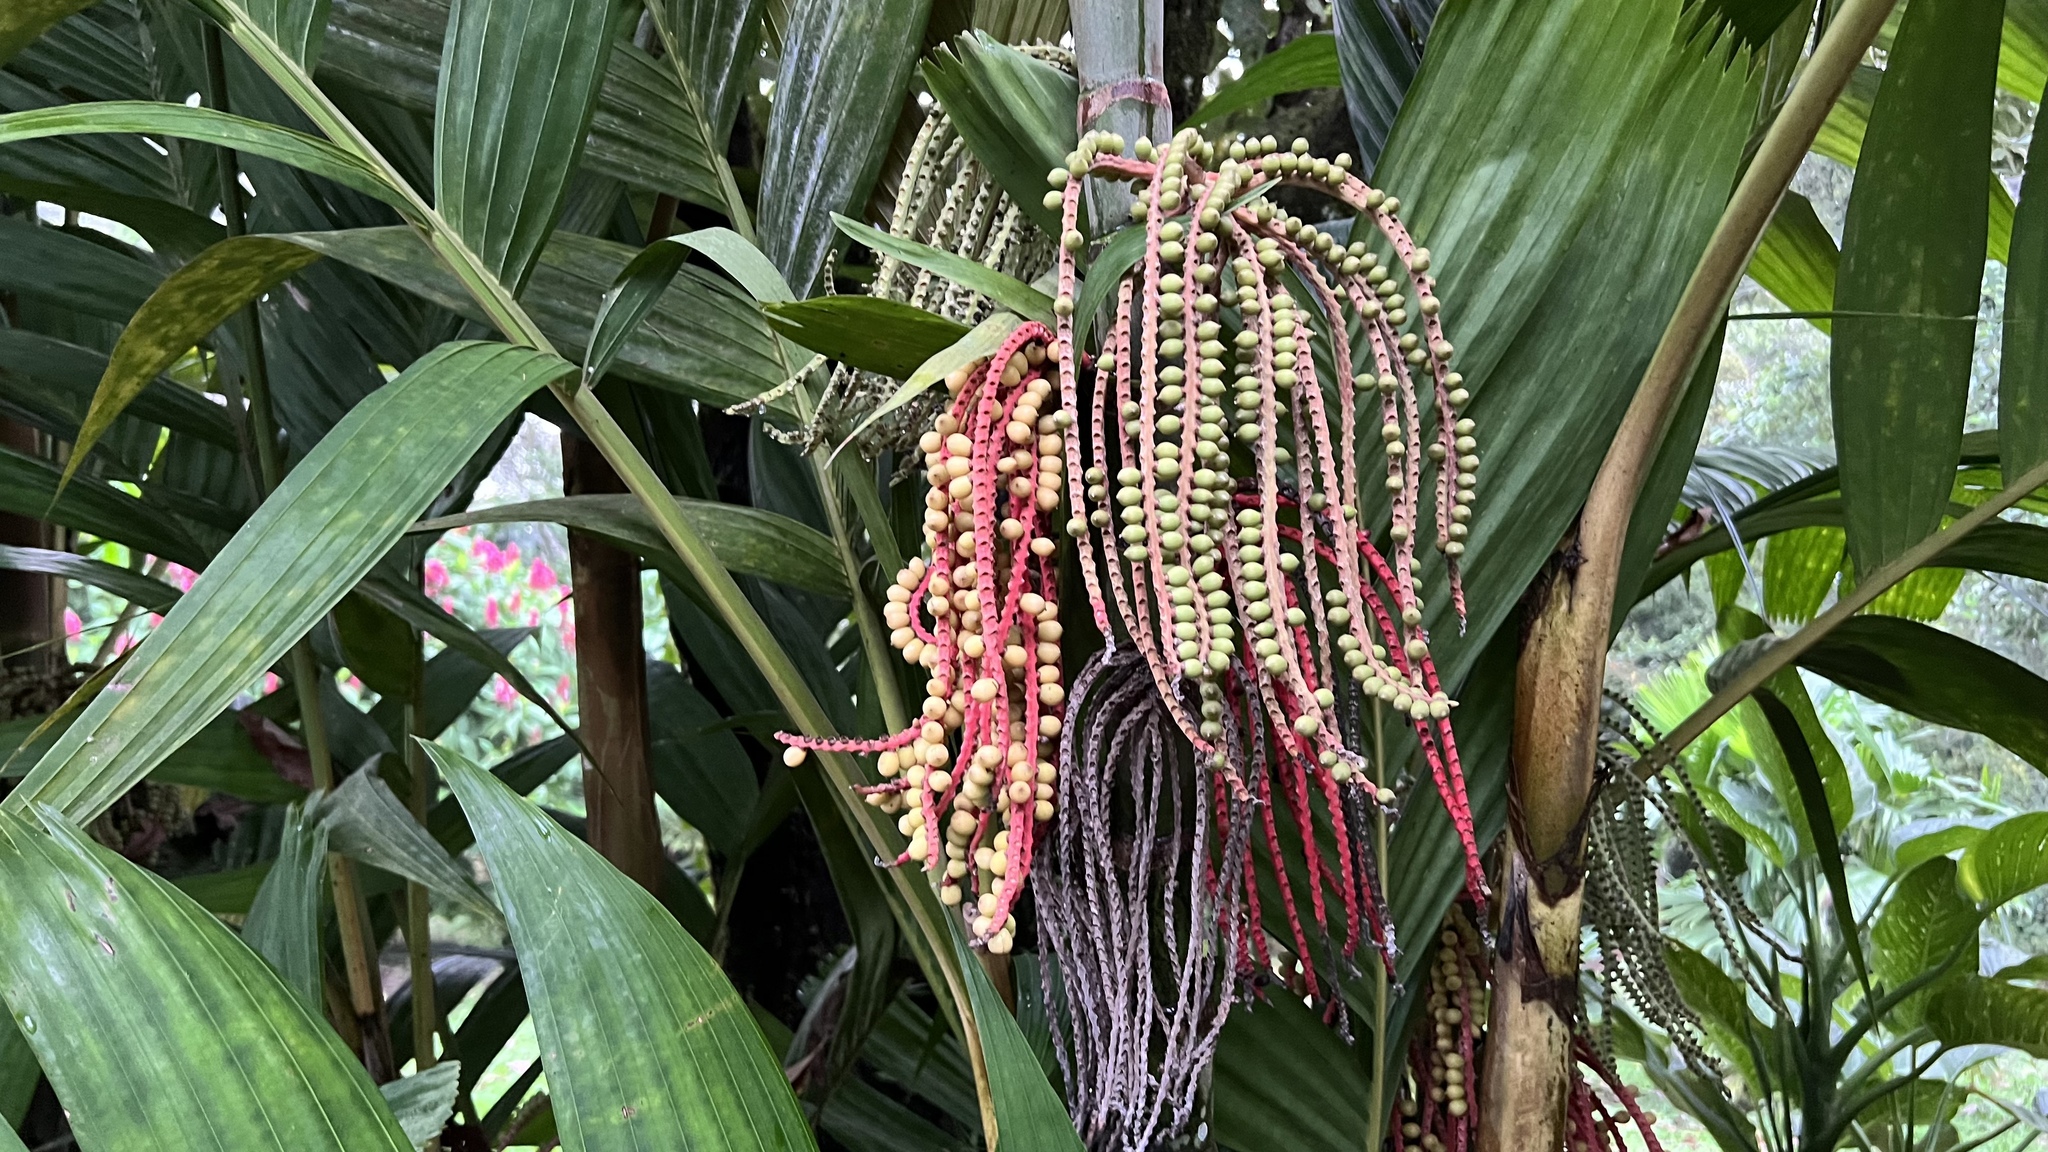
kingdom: Plantae
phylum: Tracheophyta
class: Liliopsida
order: Arecales
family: Arecaceae
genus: Pinanga
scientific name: Pinanga coronata
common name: Ivory cane palm
